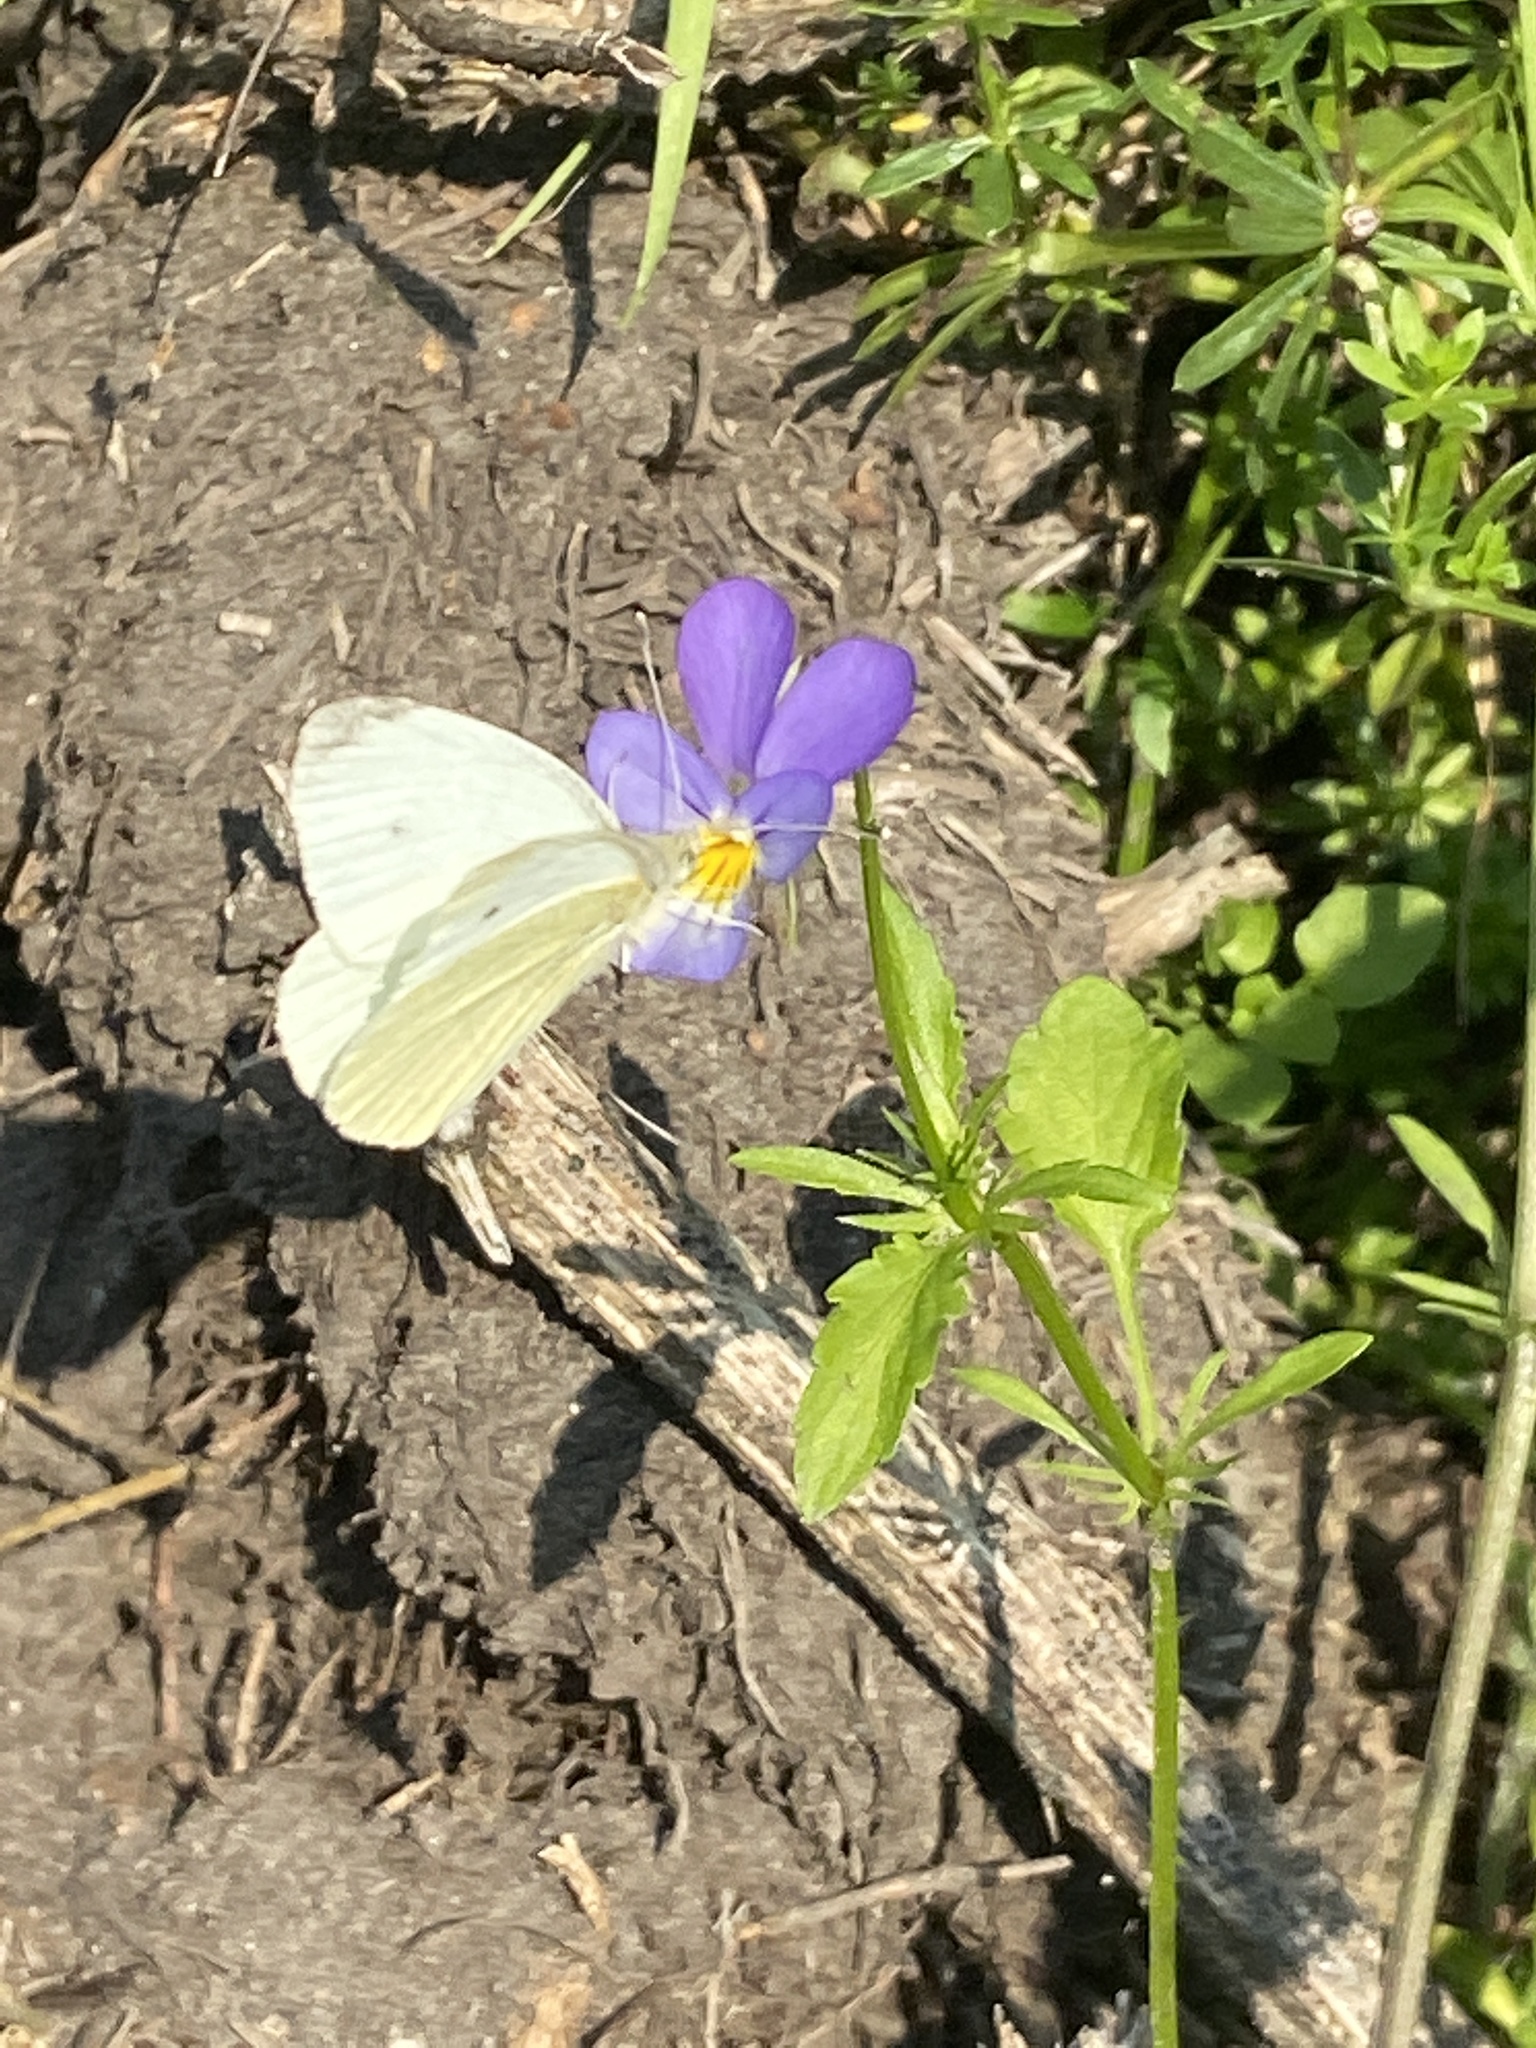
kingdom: Animalia
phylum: Arthropoda
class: Insecta
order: Lepidoptera
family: Pieridae
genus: Pieris
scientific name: Pieris rapae
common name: Small white
